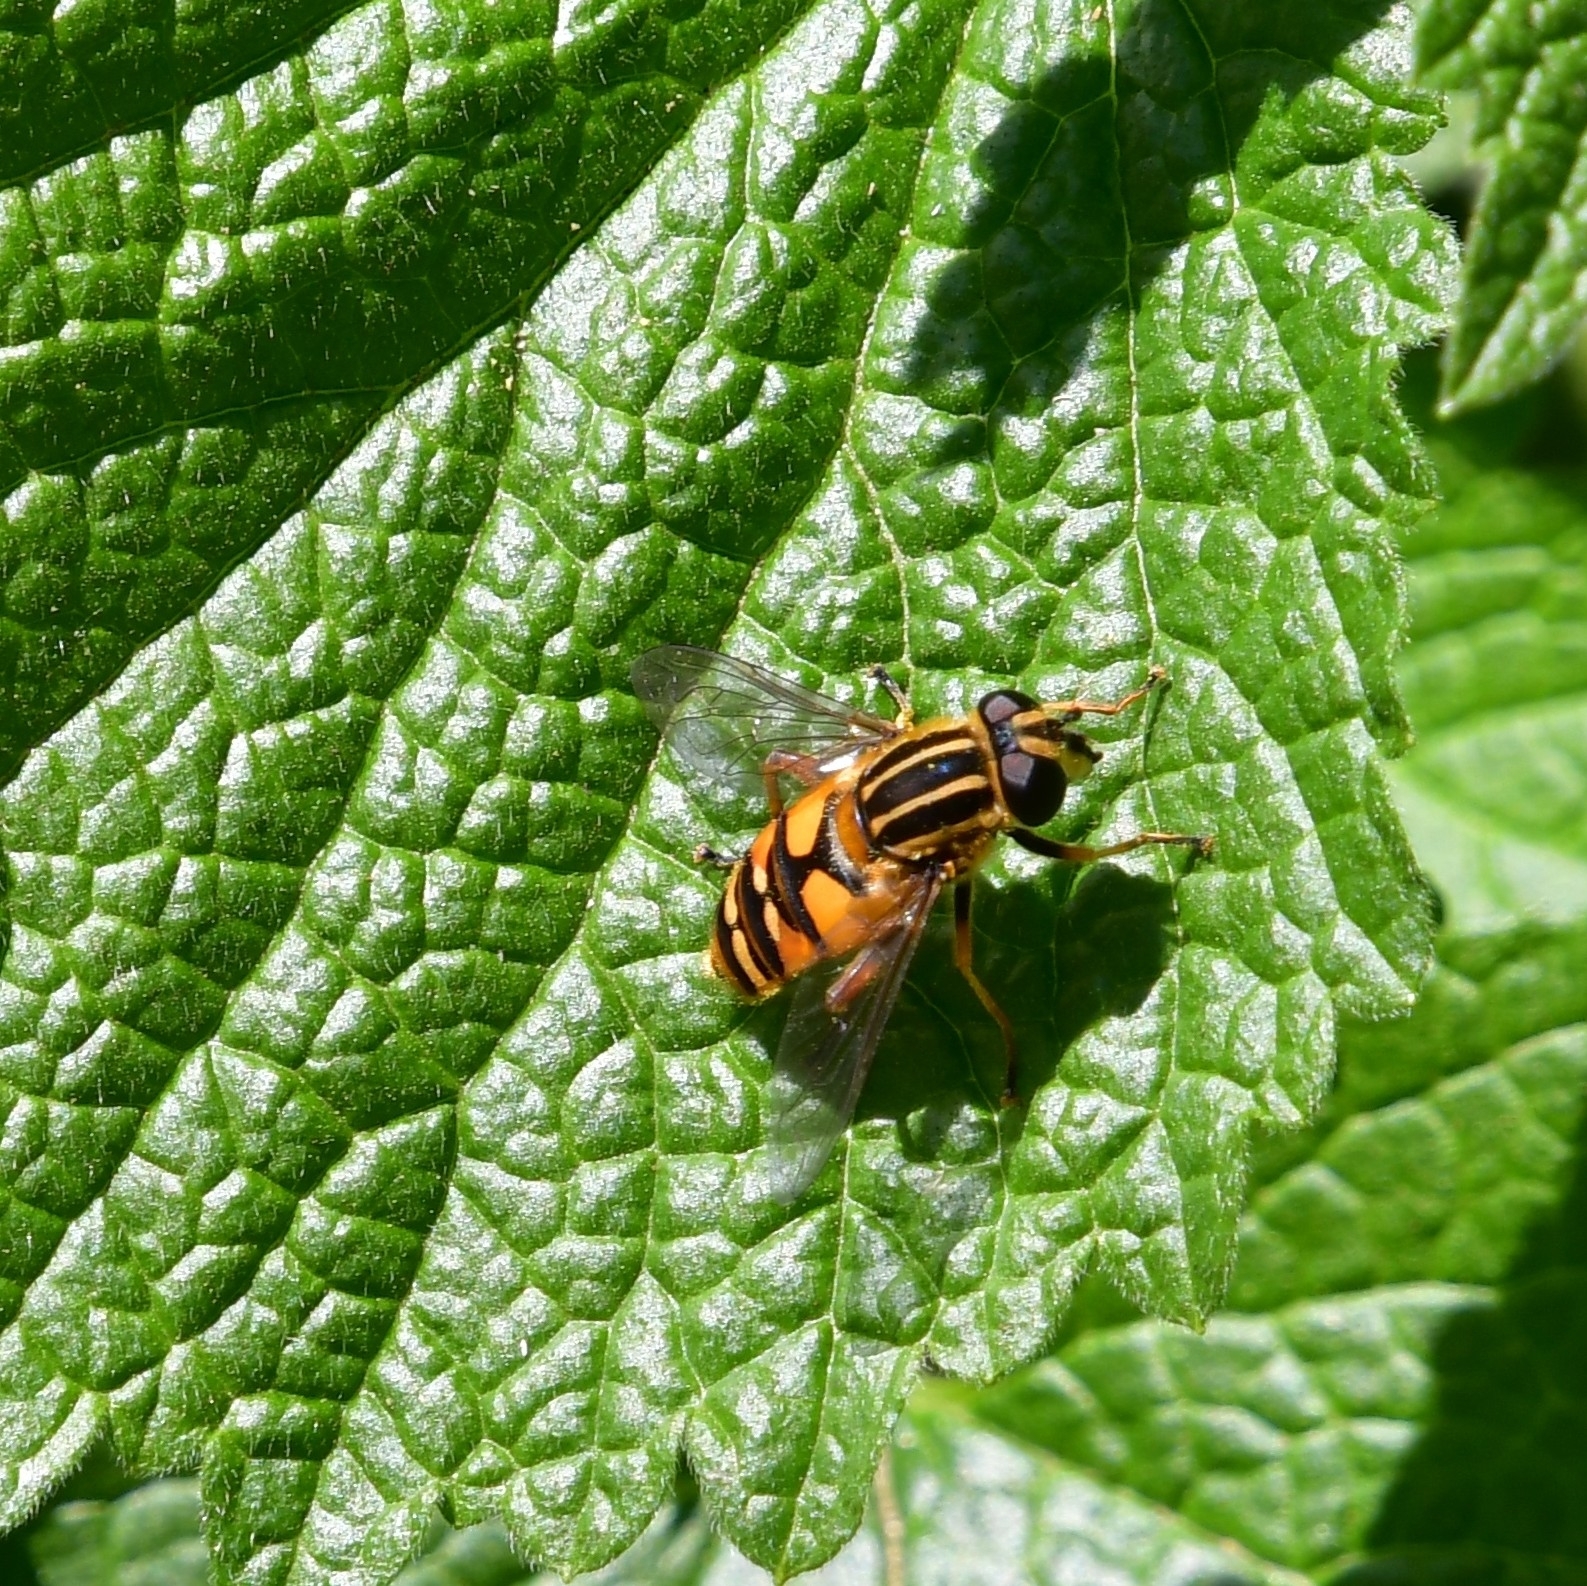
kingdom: Animalia
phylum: Arthropoda
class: Insecta
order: Diptera
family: Syrphidae
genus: Helophilus
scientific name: Helophilus pendulus
